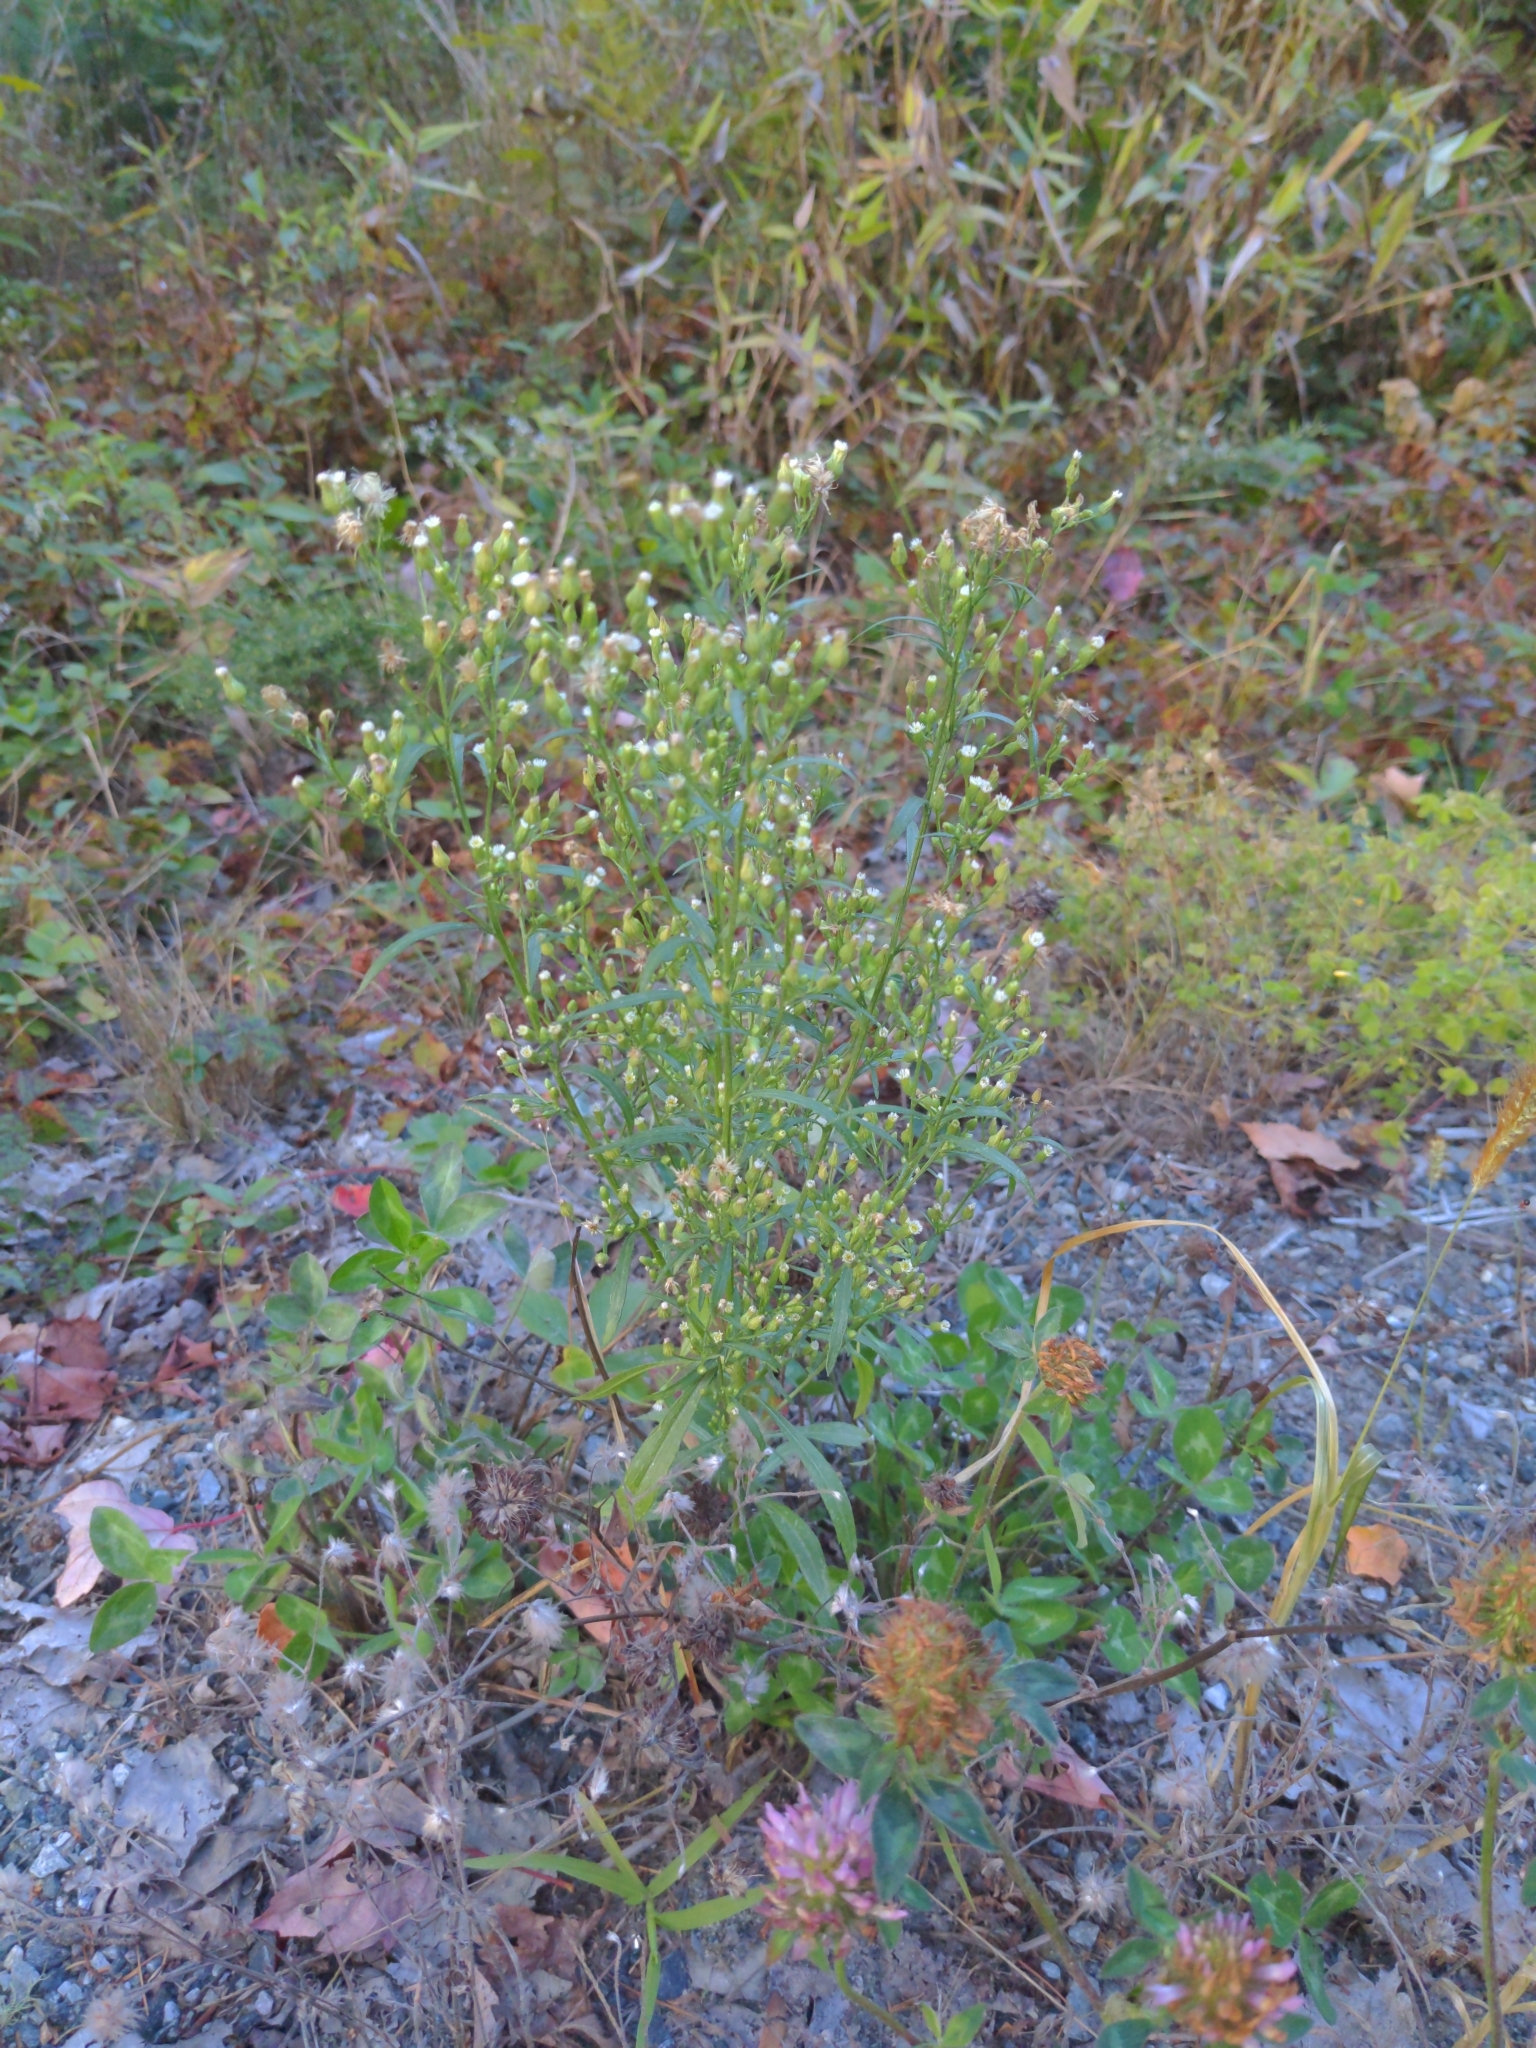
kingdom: Plantae
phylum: Tracheophyta
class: Magnoliopsida
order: Asterales
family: Asteraceae
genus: Erigeron
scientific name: Erigeron canadensis
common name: Canadian fleabane
